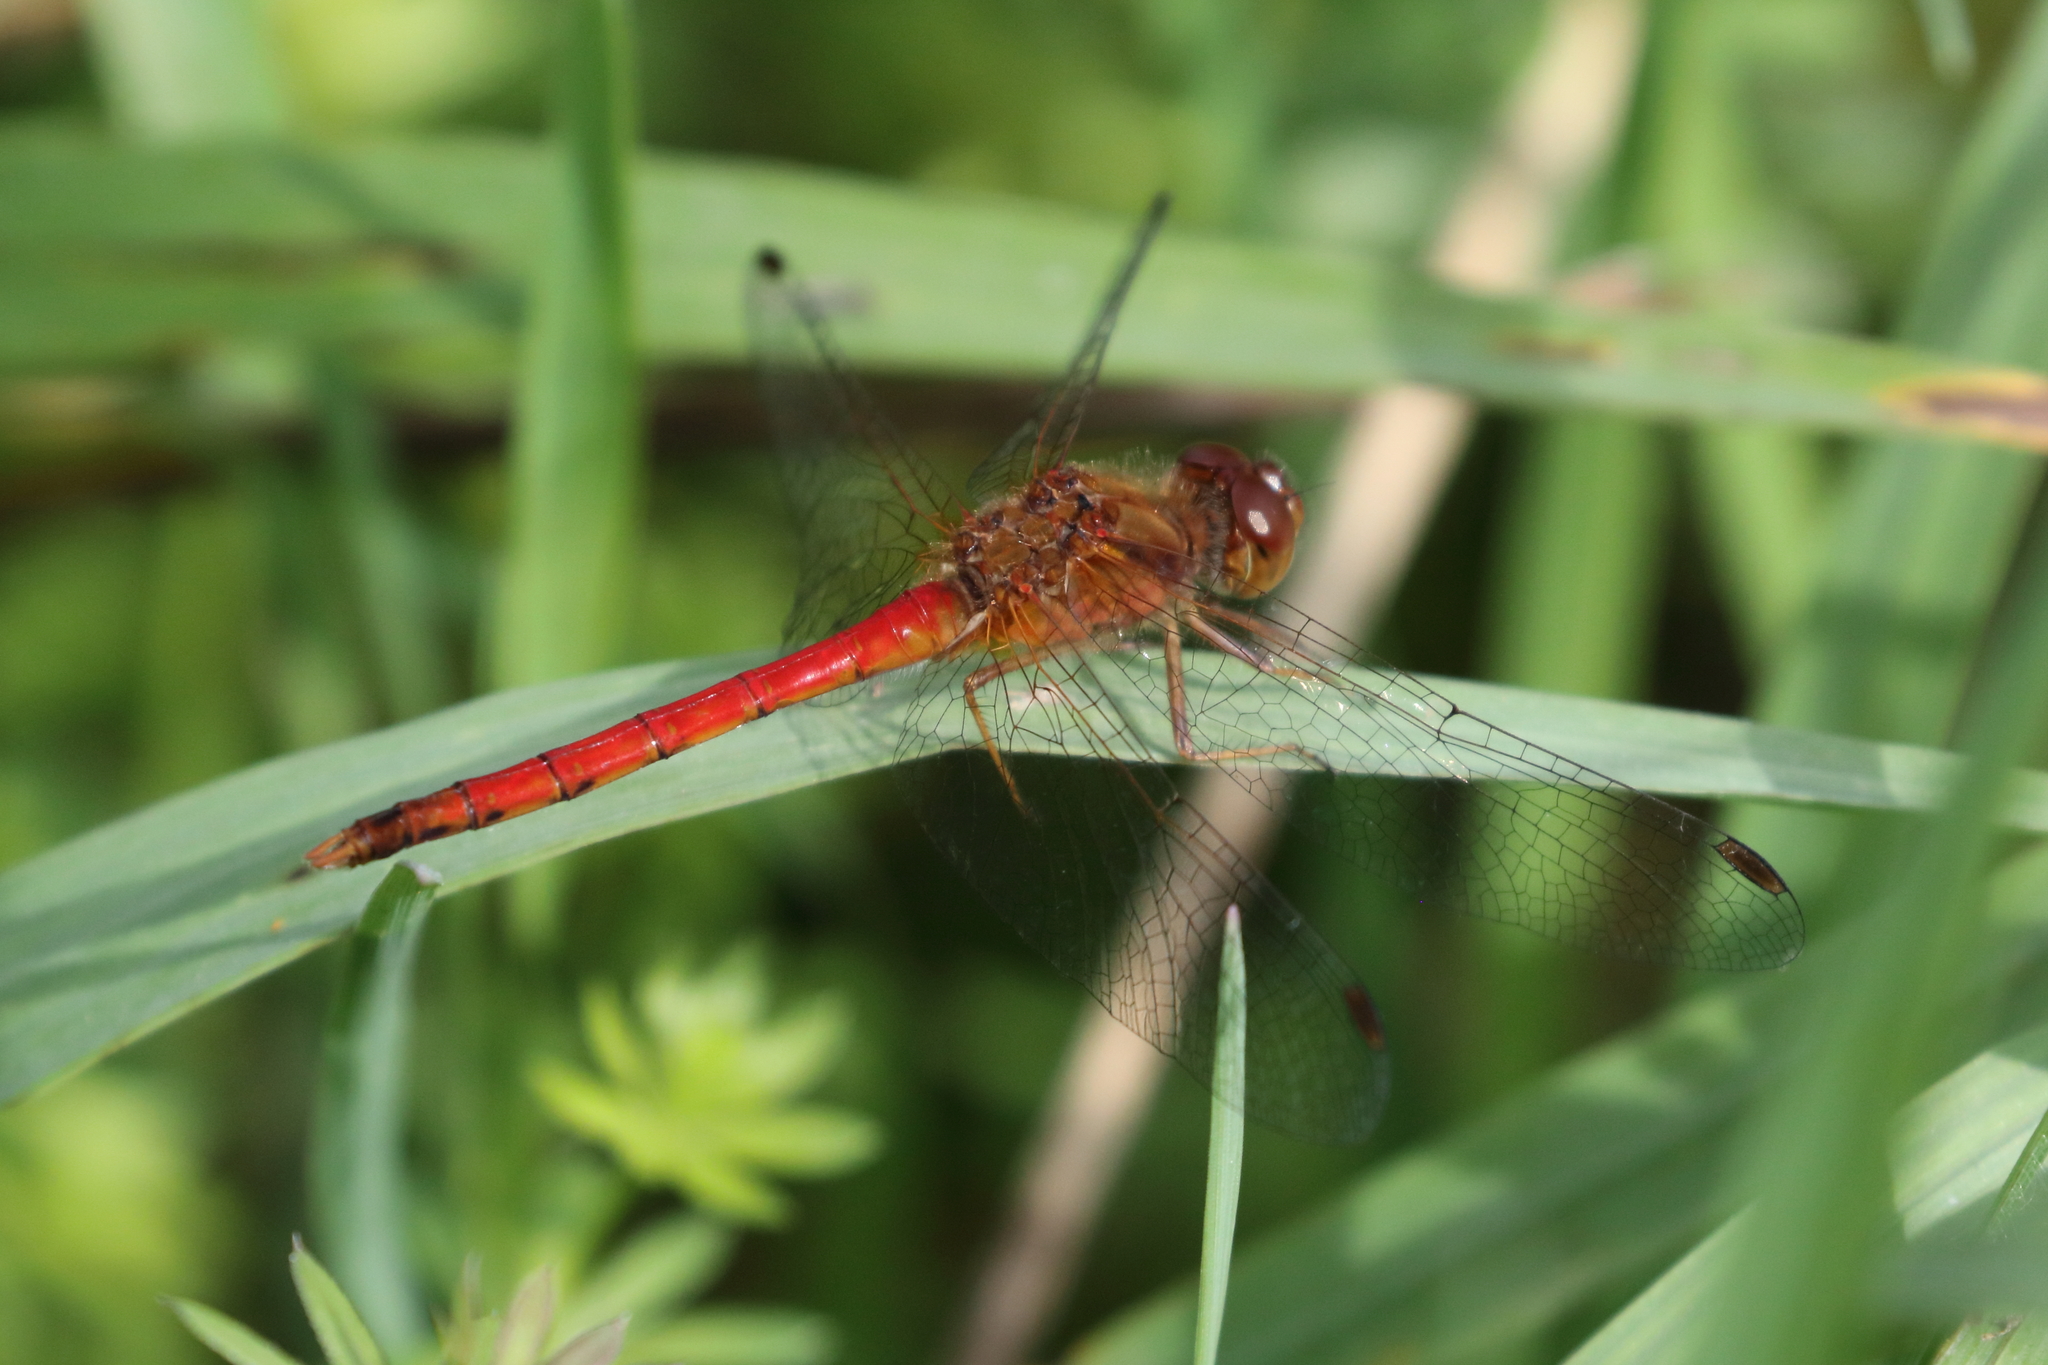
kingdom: Animalia
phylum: Arthropoda
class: Insecta
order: Odonata
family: Libellulidae
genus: Sympetrum
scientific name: Sympetrum vicinum
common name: Autumn meadowhawk
